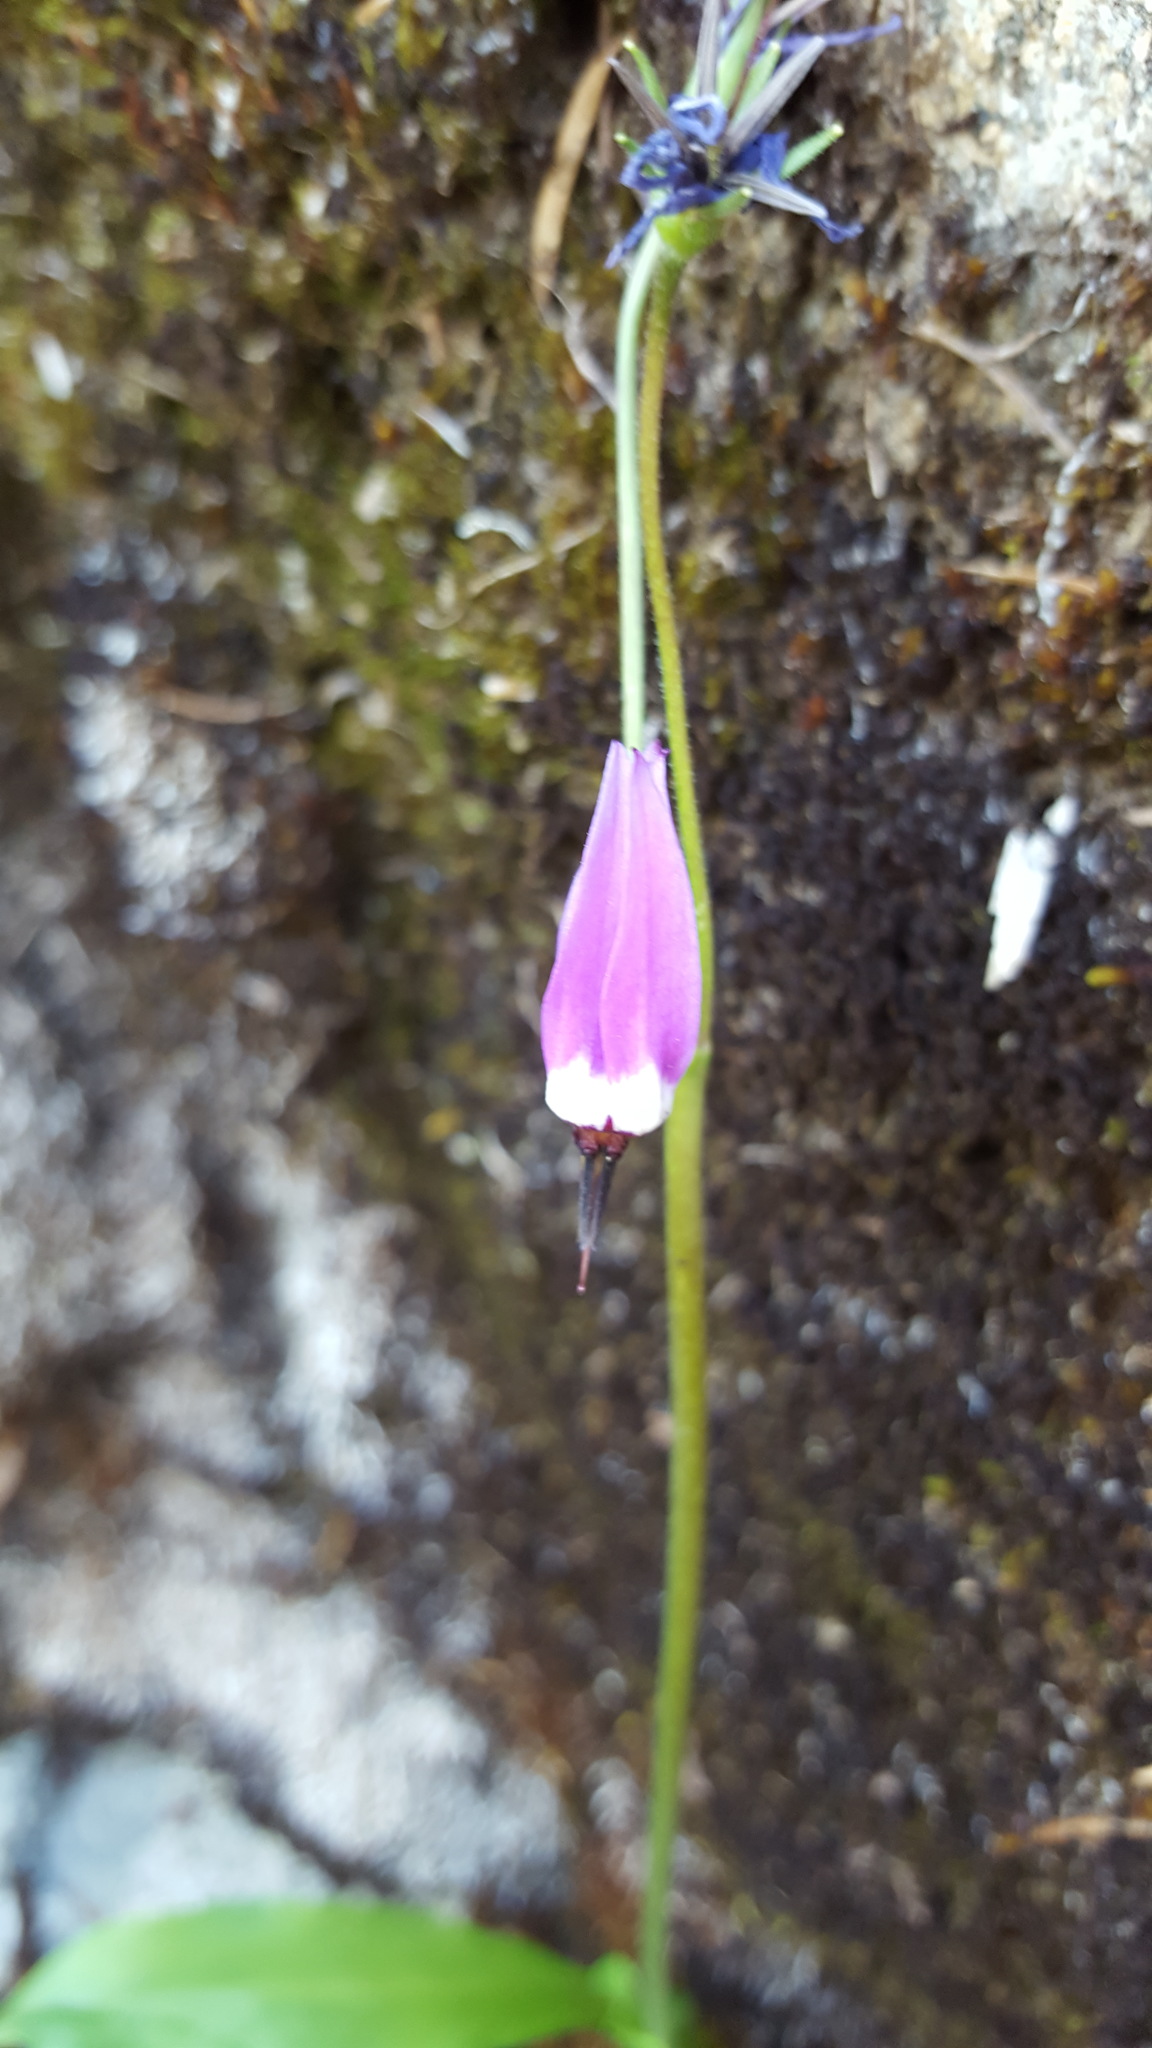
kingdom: Plantae
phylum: Tracheophyta
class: Magnoliopsida
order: Ericales
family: Primulaceae
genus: Dodecatheon
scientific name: Dodecatheon jeffreyanum
